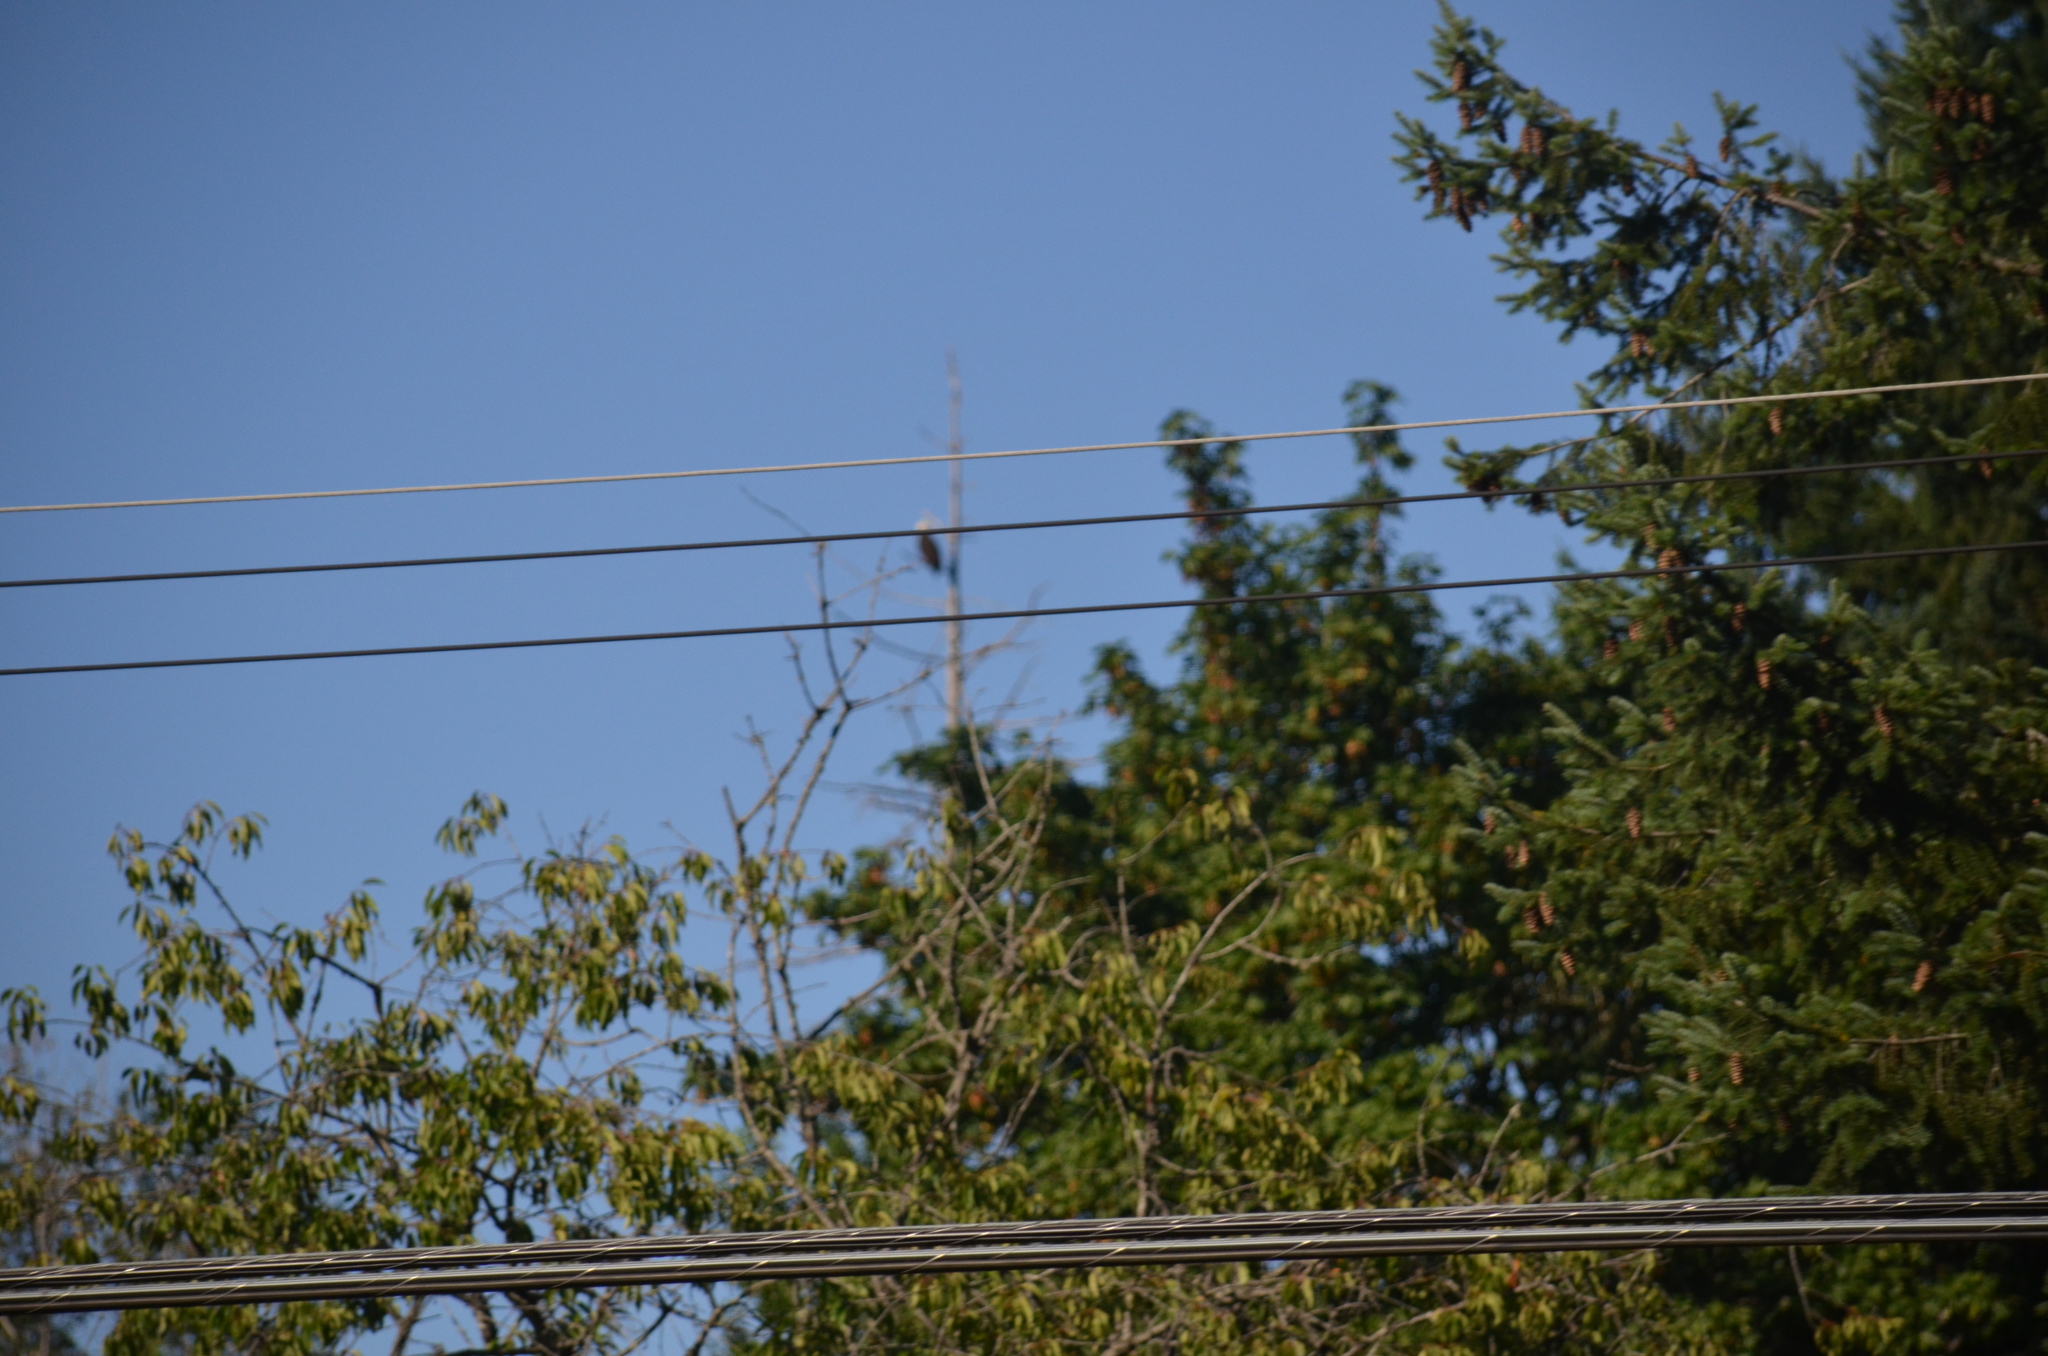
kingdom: Animalia
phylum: Chordata
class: Aves
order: Accipitriformes
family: Accipitridae
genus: Haliaeetus
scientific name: Haliaeetus leucocephalus
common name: Bald eagle
